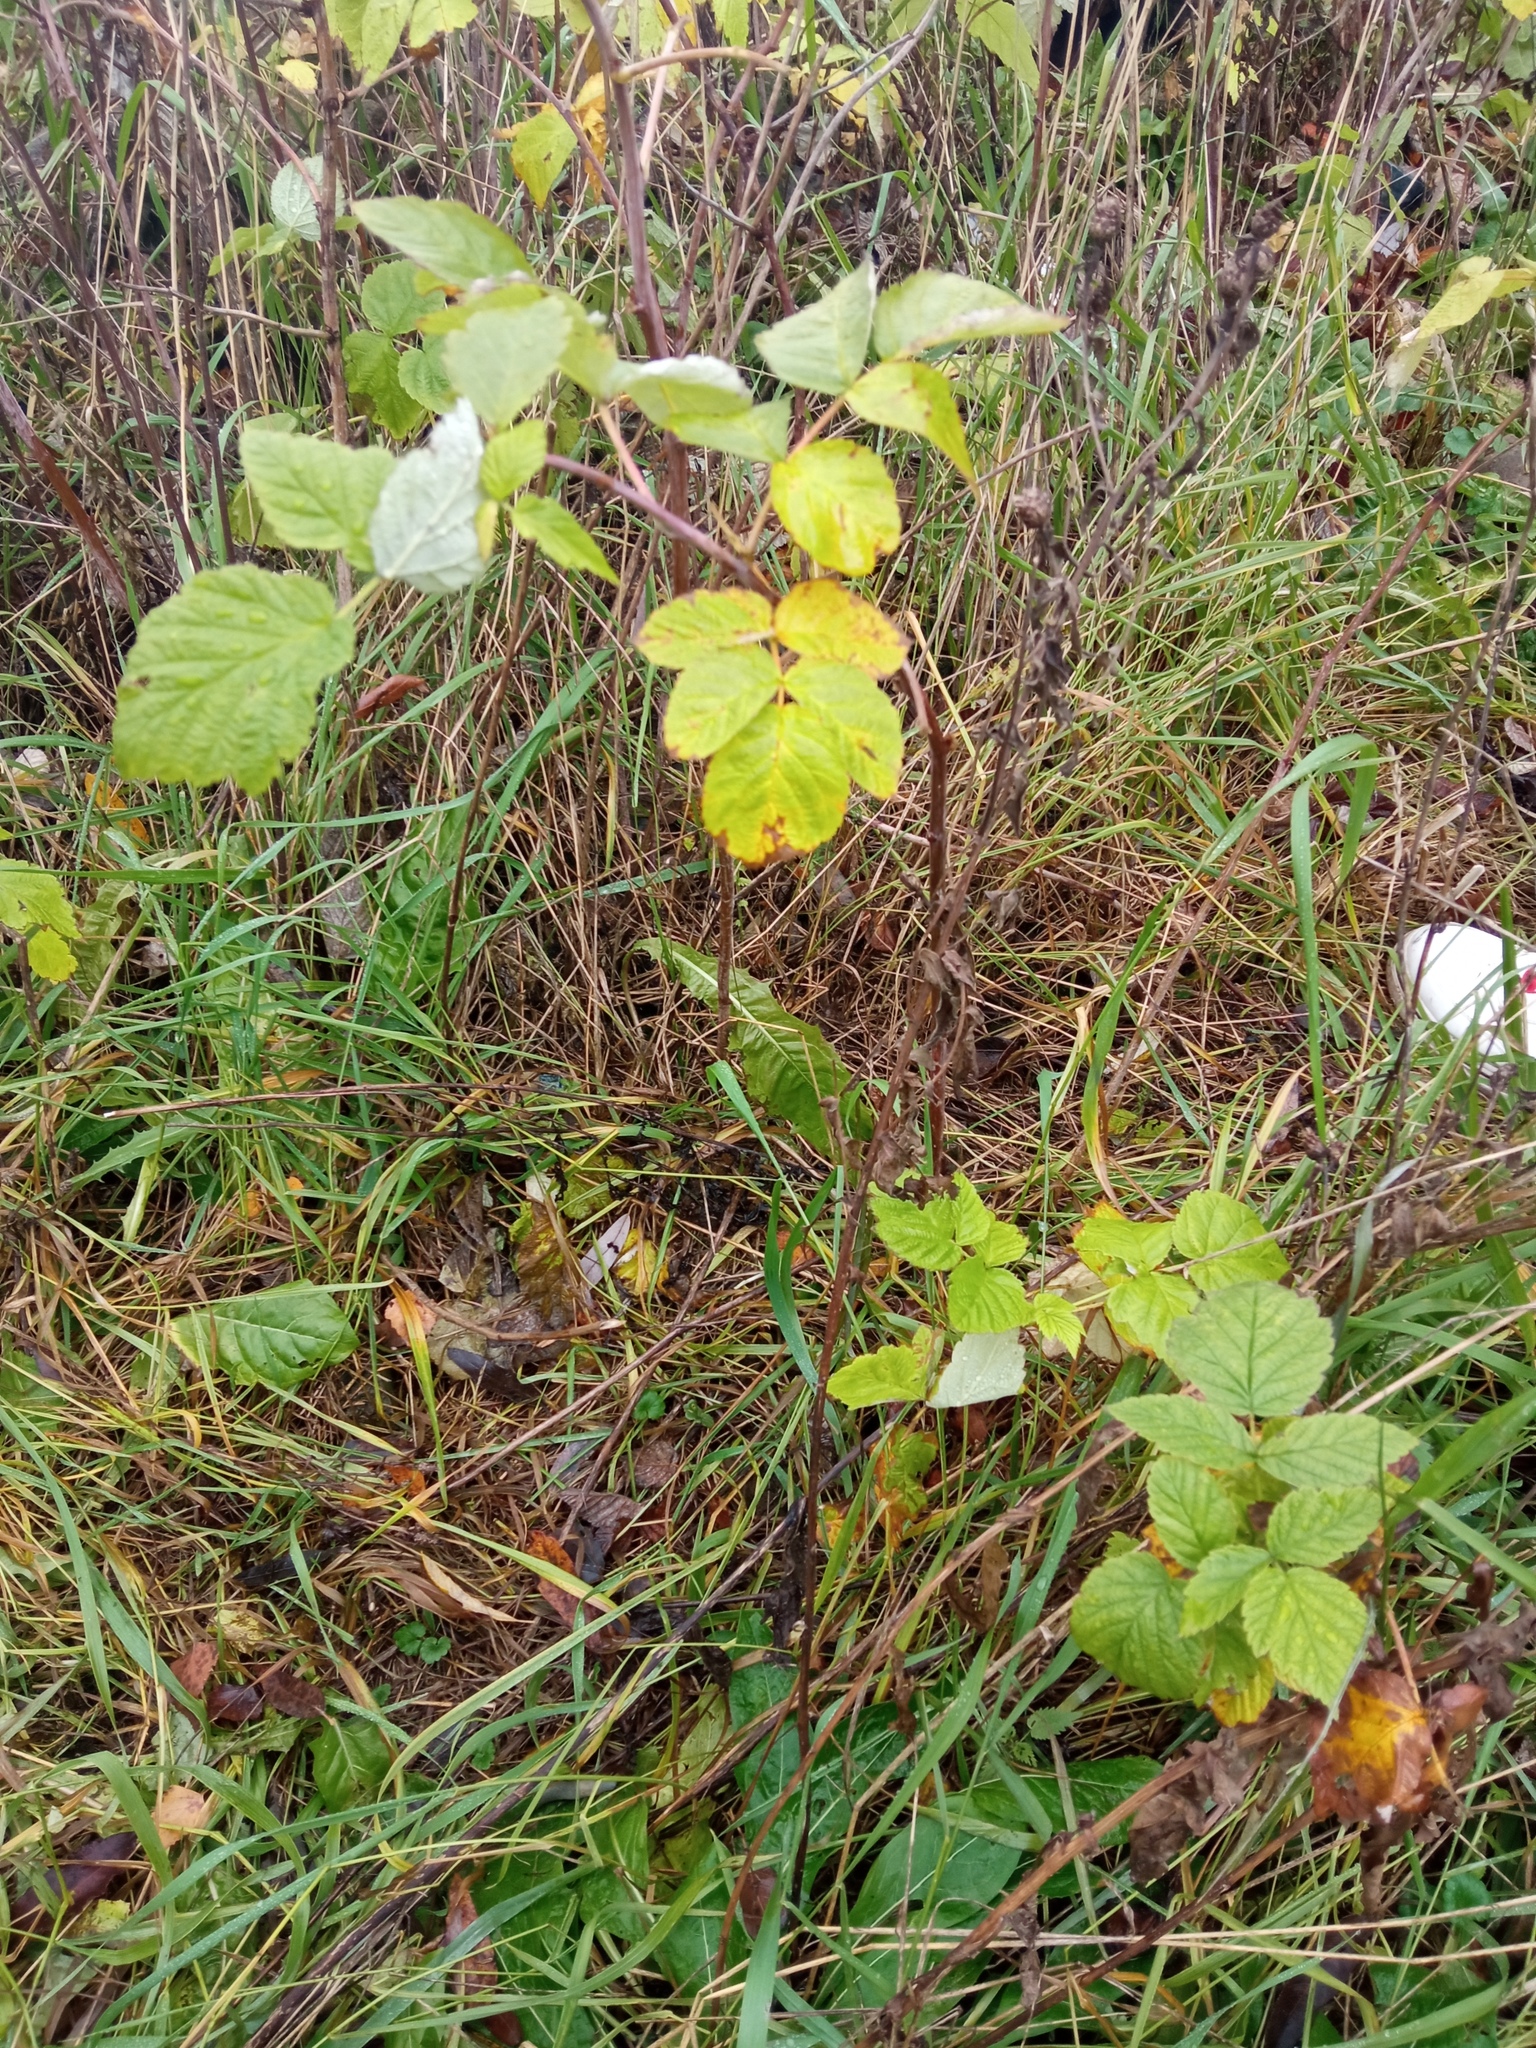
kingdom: Plantae
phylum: Tracheophyta
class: Magnoliopsida
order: Rosales
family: Rosaceae
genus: Rubus
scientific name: Rubus idaeus
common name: Raspberry
